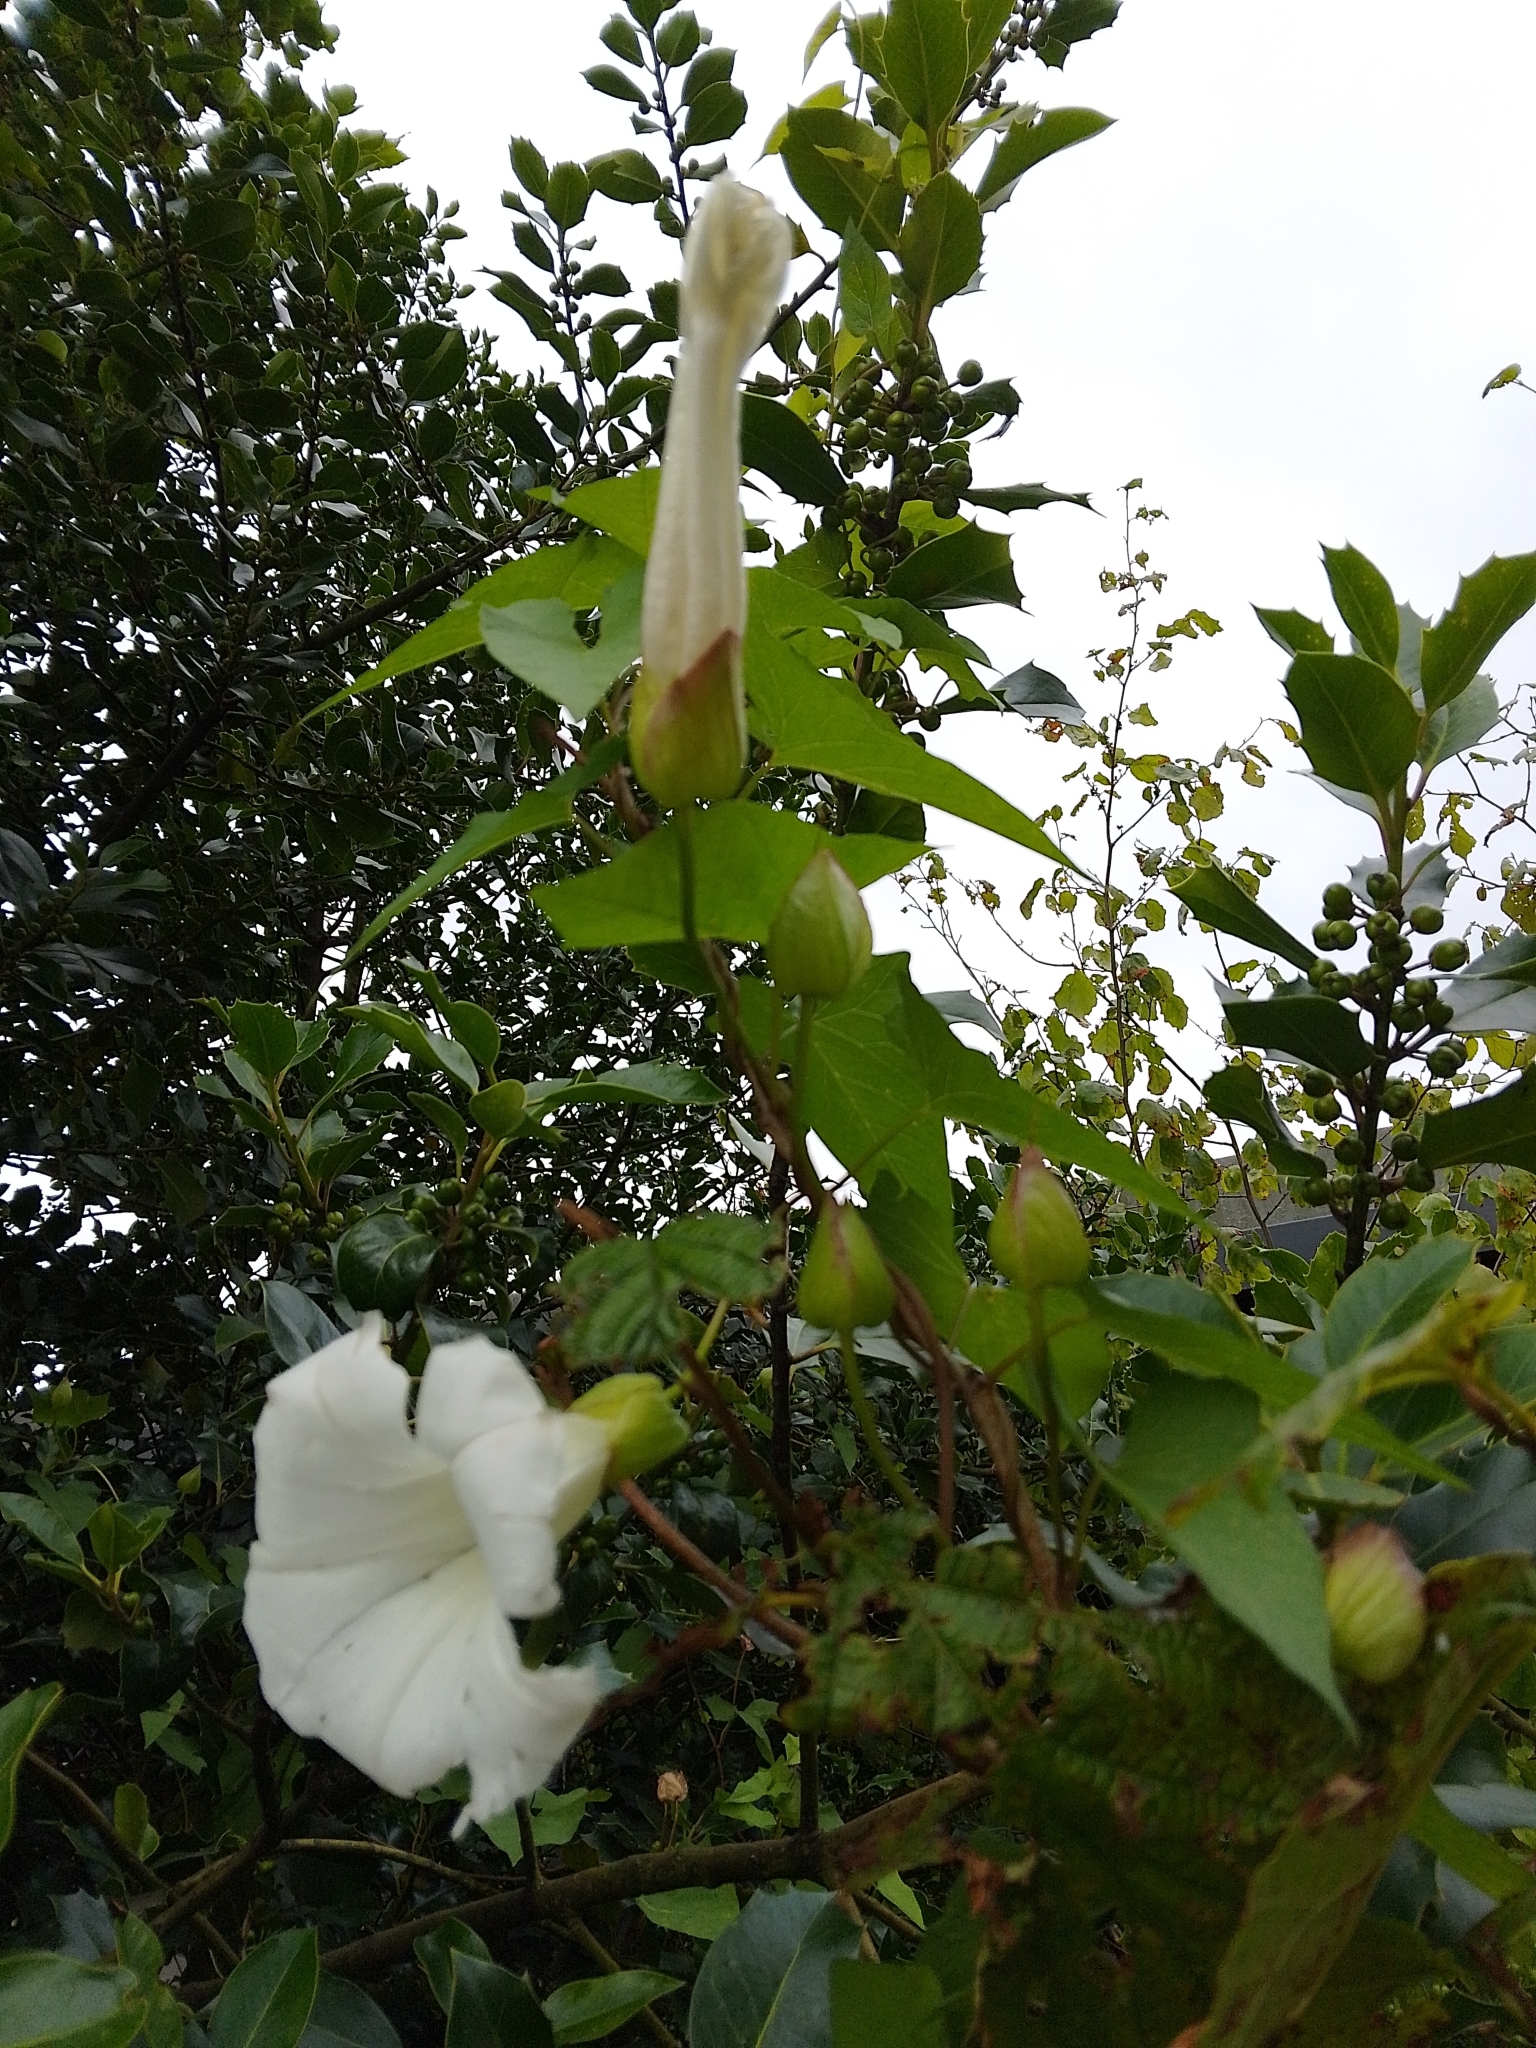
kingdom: Plantae
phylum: Tracheophyta
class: Magnoliopsida
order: Solanales
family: Convolvulaceae
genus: Calystegia
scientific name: Calystegia silvatica
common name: Large bindweed
